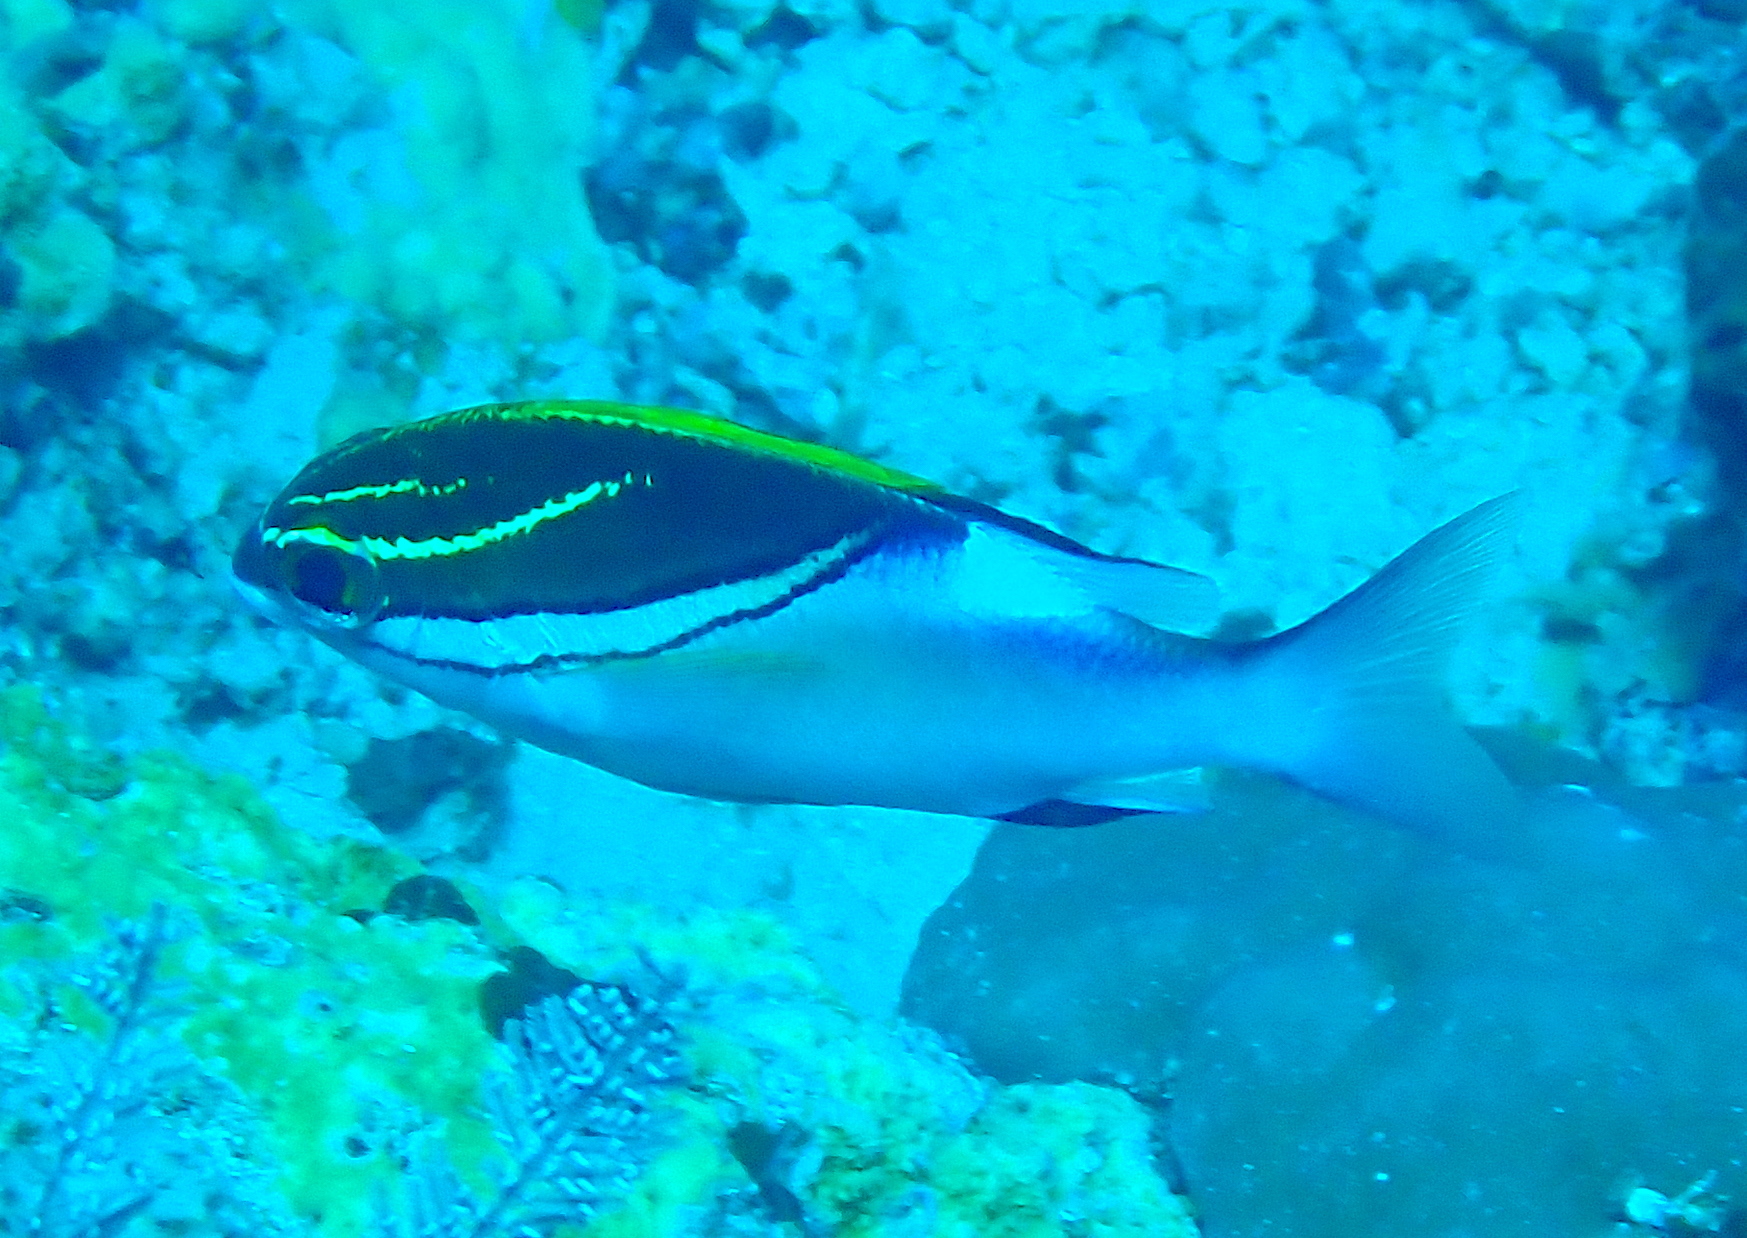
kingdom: Animalia
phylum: Chordata
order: Perciformes
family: Nemipteridae
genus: Scolopsis
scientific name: Scolopsis bilineata
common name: Two-lined monocle bream
